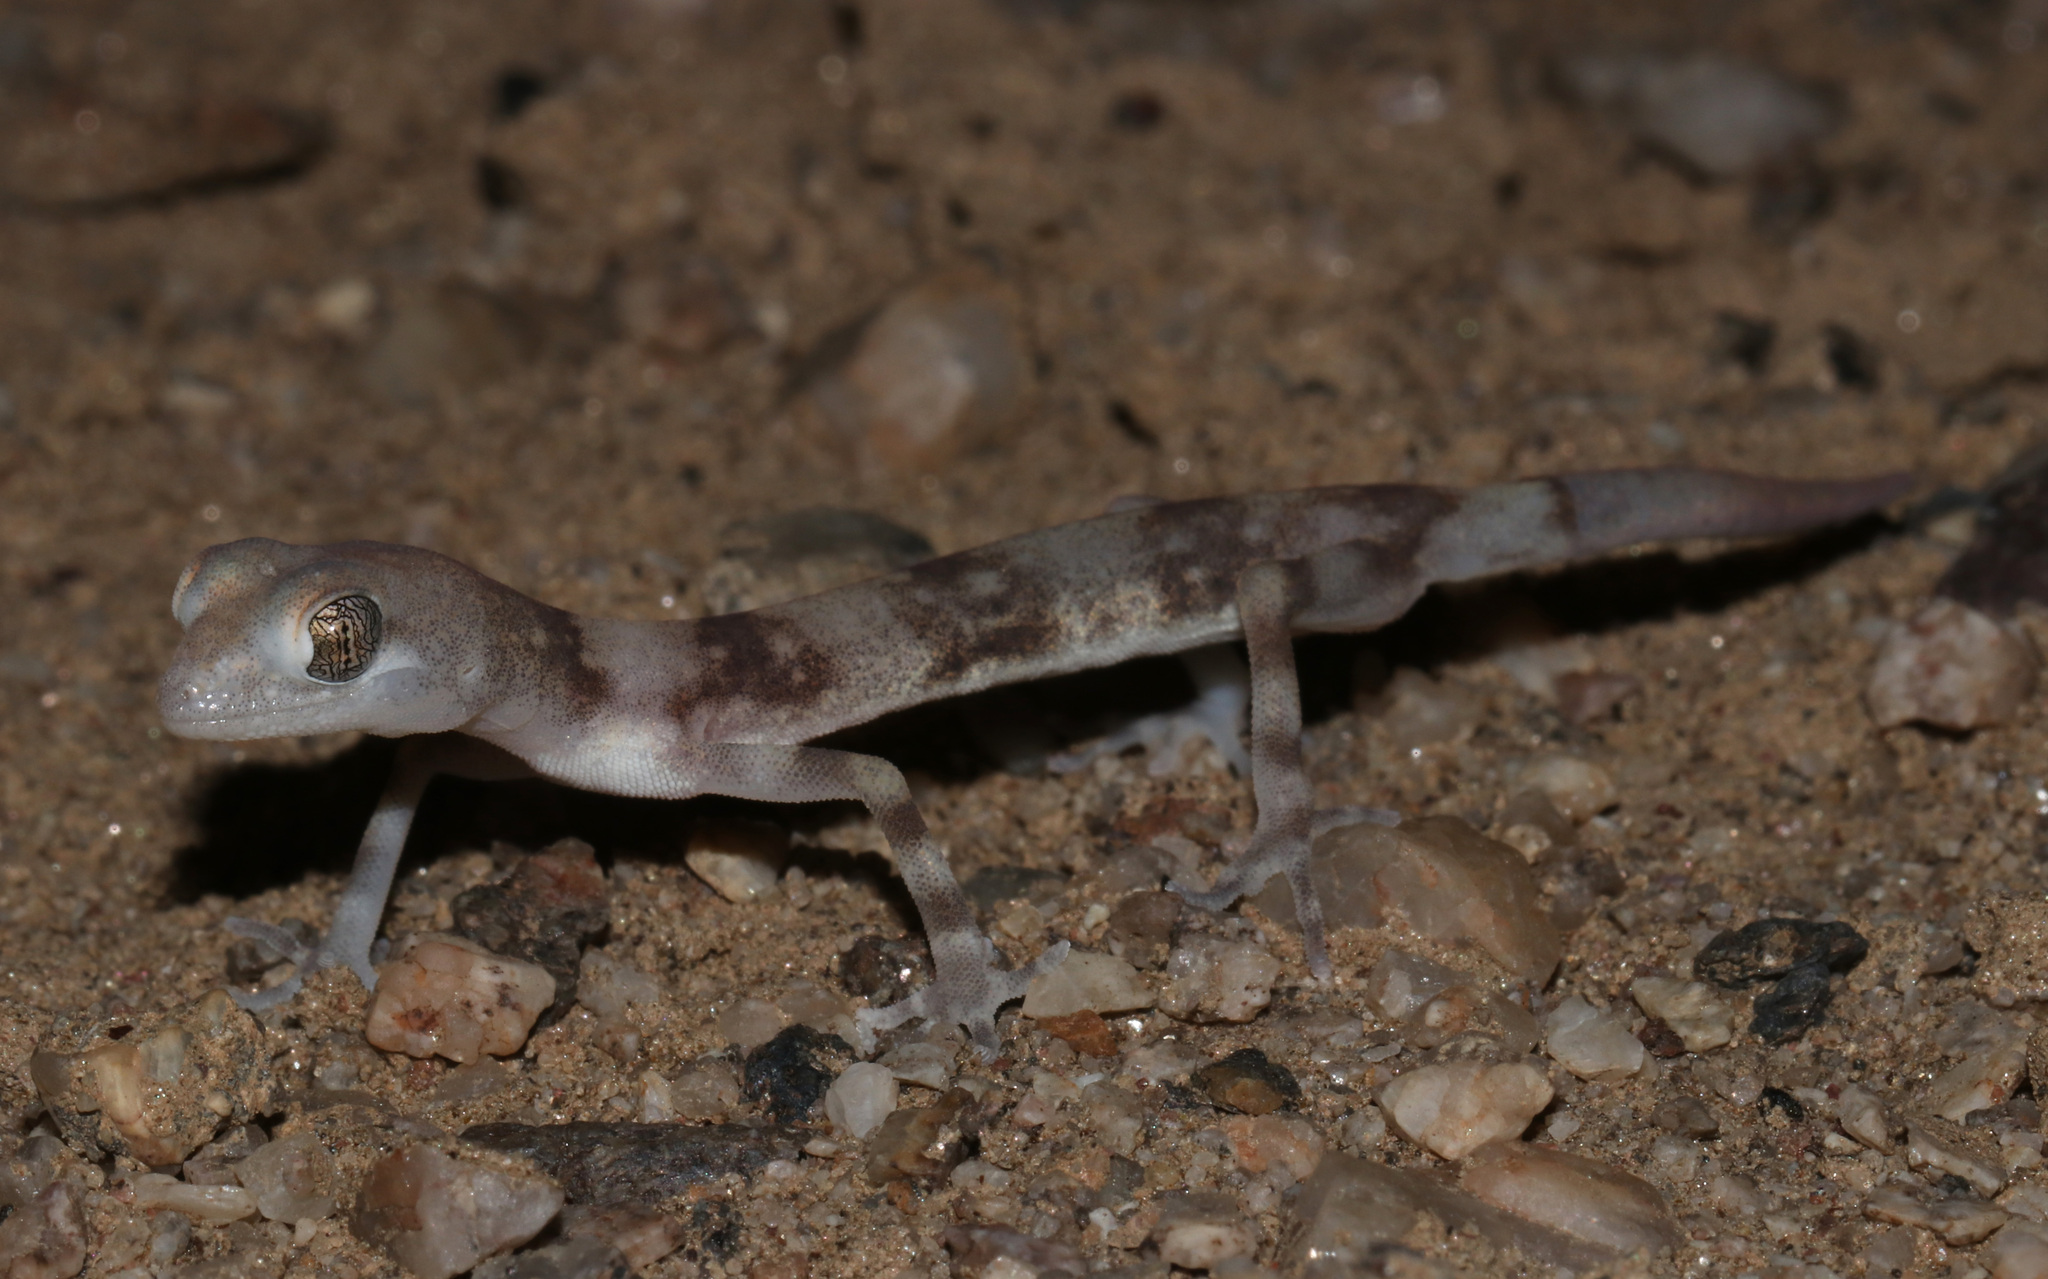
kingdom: Animalia
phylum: Chordata
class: Squamata
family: Gekkonidae
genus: Pachydactylus
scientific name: Pachydactylus kochii
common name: Koch’s gecko
